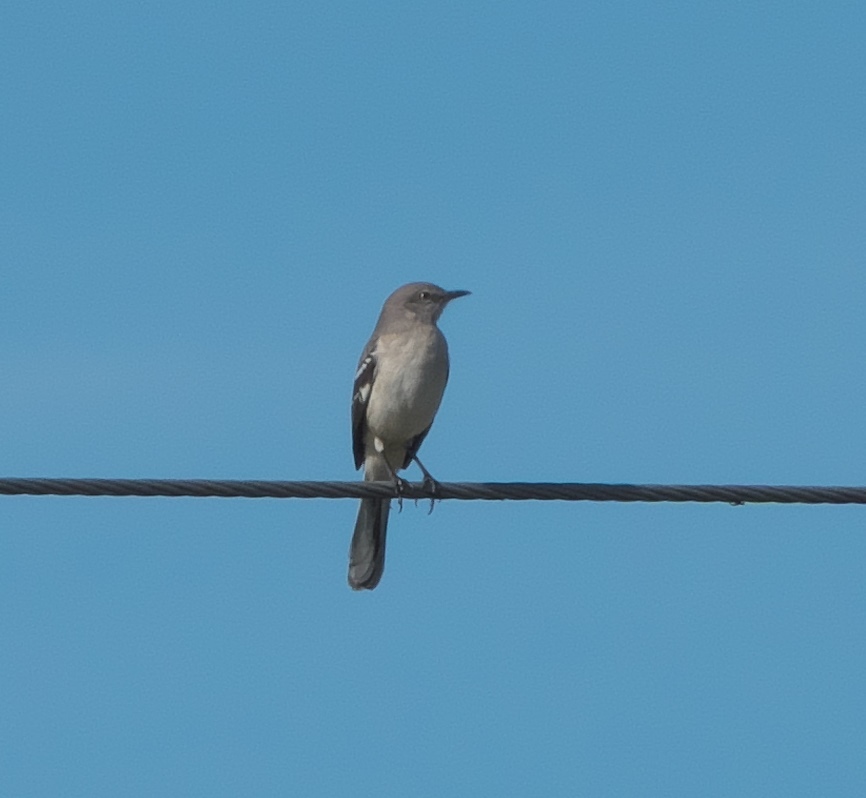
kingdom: Animalia
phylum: Chordata
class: Aves
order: Passeriformes
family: Mimidae
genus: Mimus
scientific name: Mimus polyglottos
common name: Northern mockingbird
